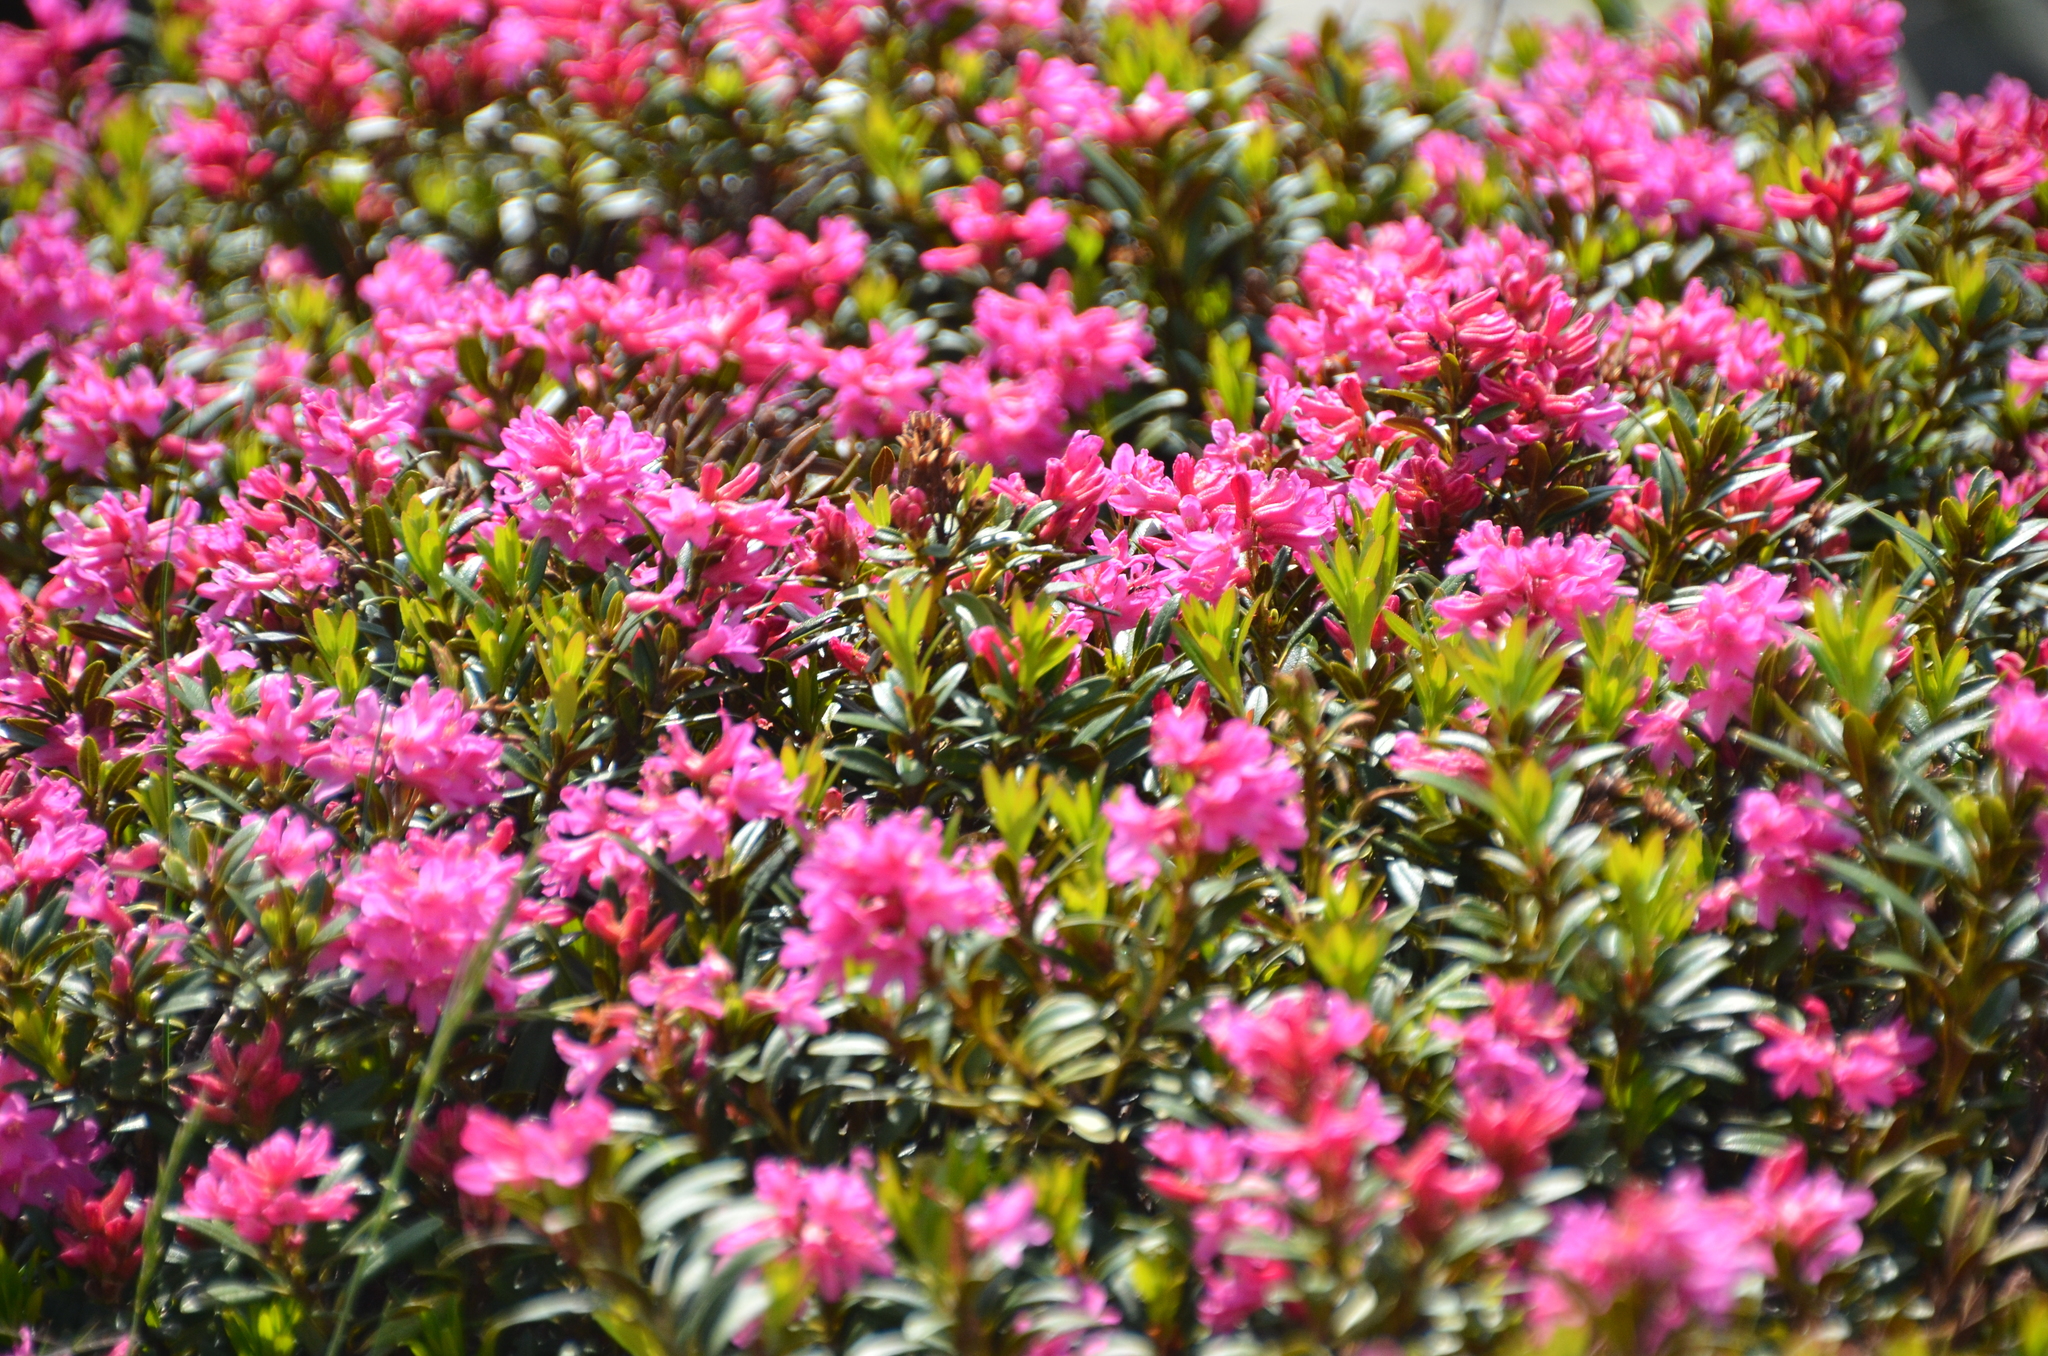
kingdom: Plantae
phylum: Tracheophyta
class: Magnoliopsida
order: Ericales
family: Ericaceae
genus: Rhododendron
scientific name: Rhododendron ferrugineum
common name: Alpenrose
